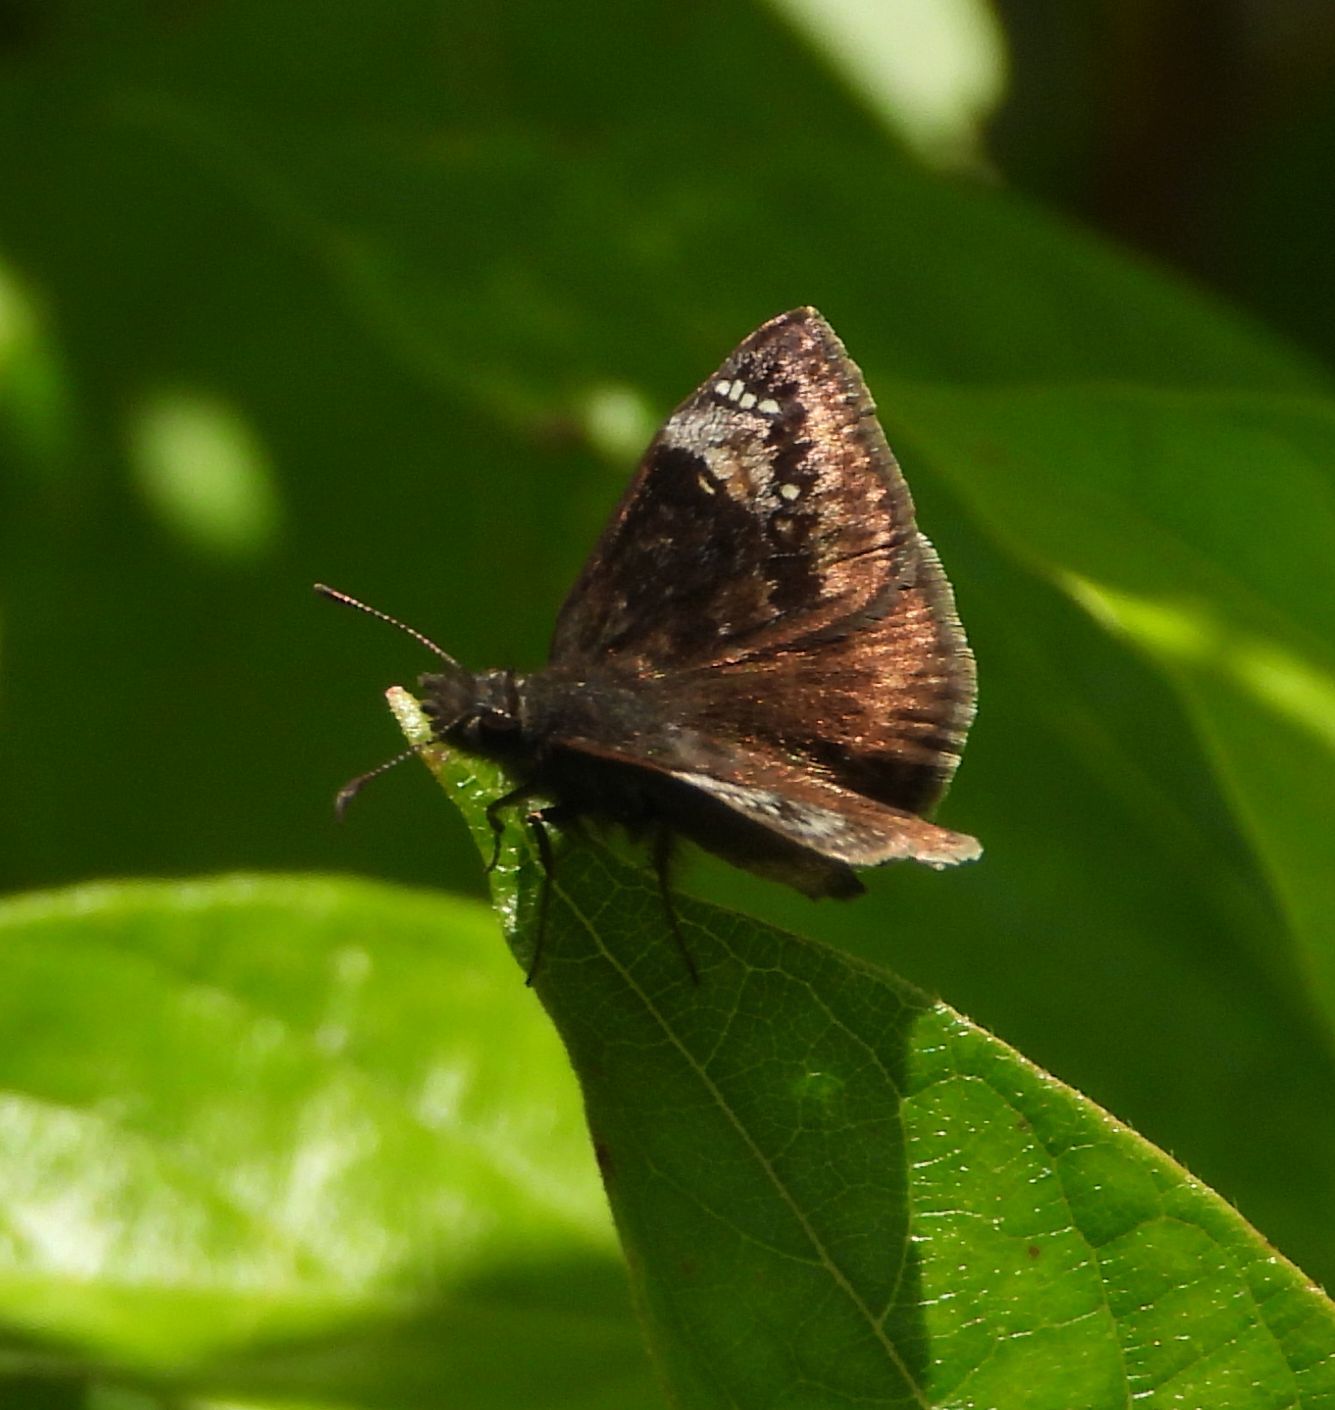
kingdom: Animalia
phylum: Arthropoda
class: Insecta
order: Lepidoptera
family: Hesperiidae
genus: Erynnis
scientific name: Erynnis lucilius
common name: Columbine duskywing
